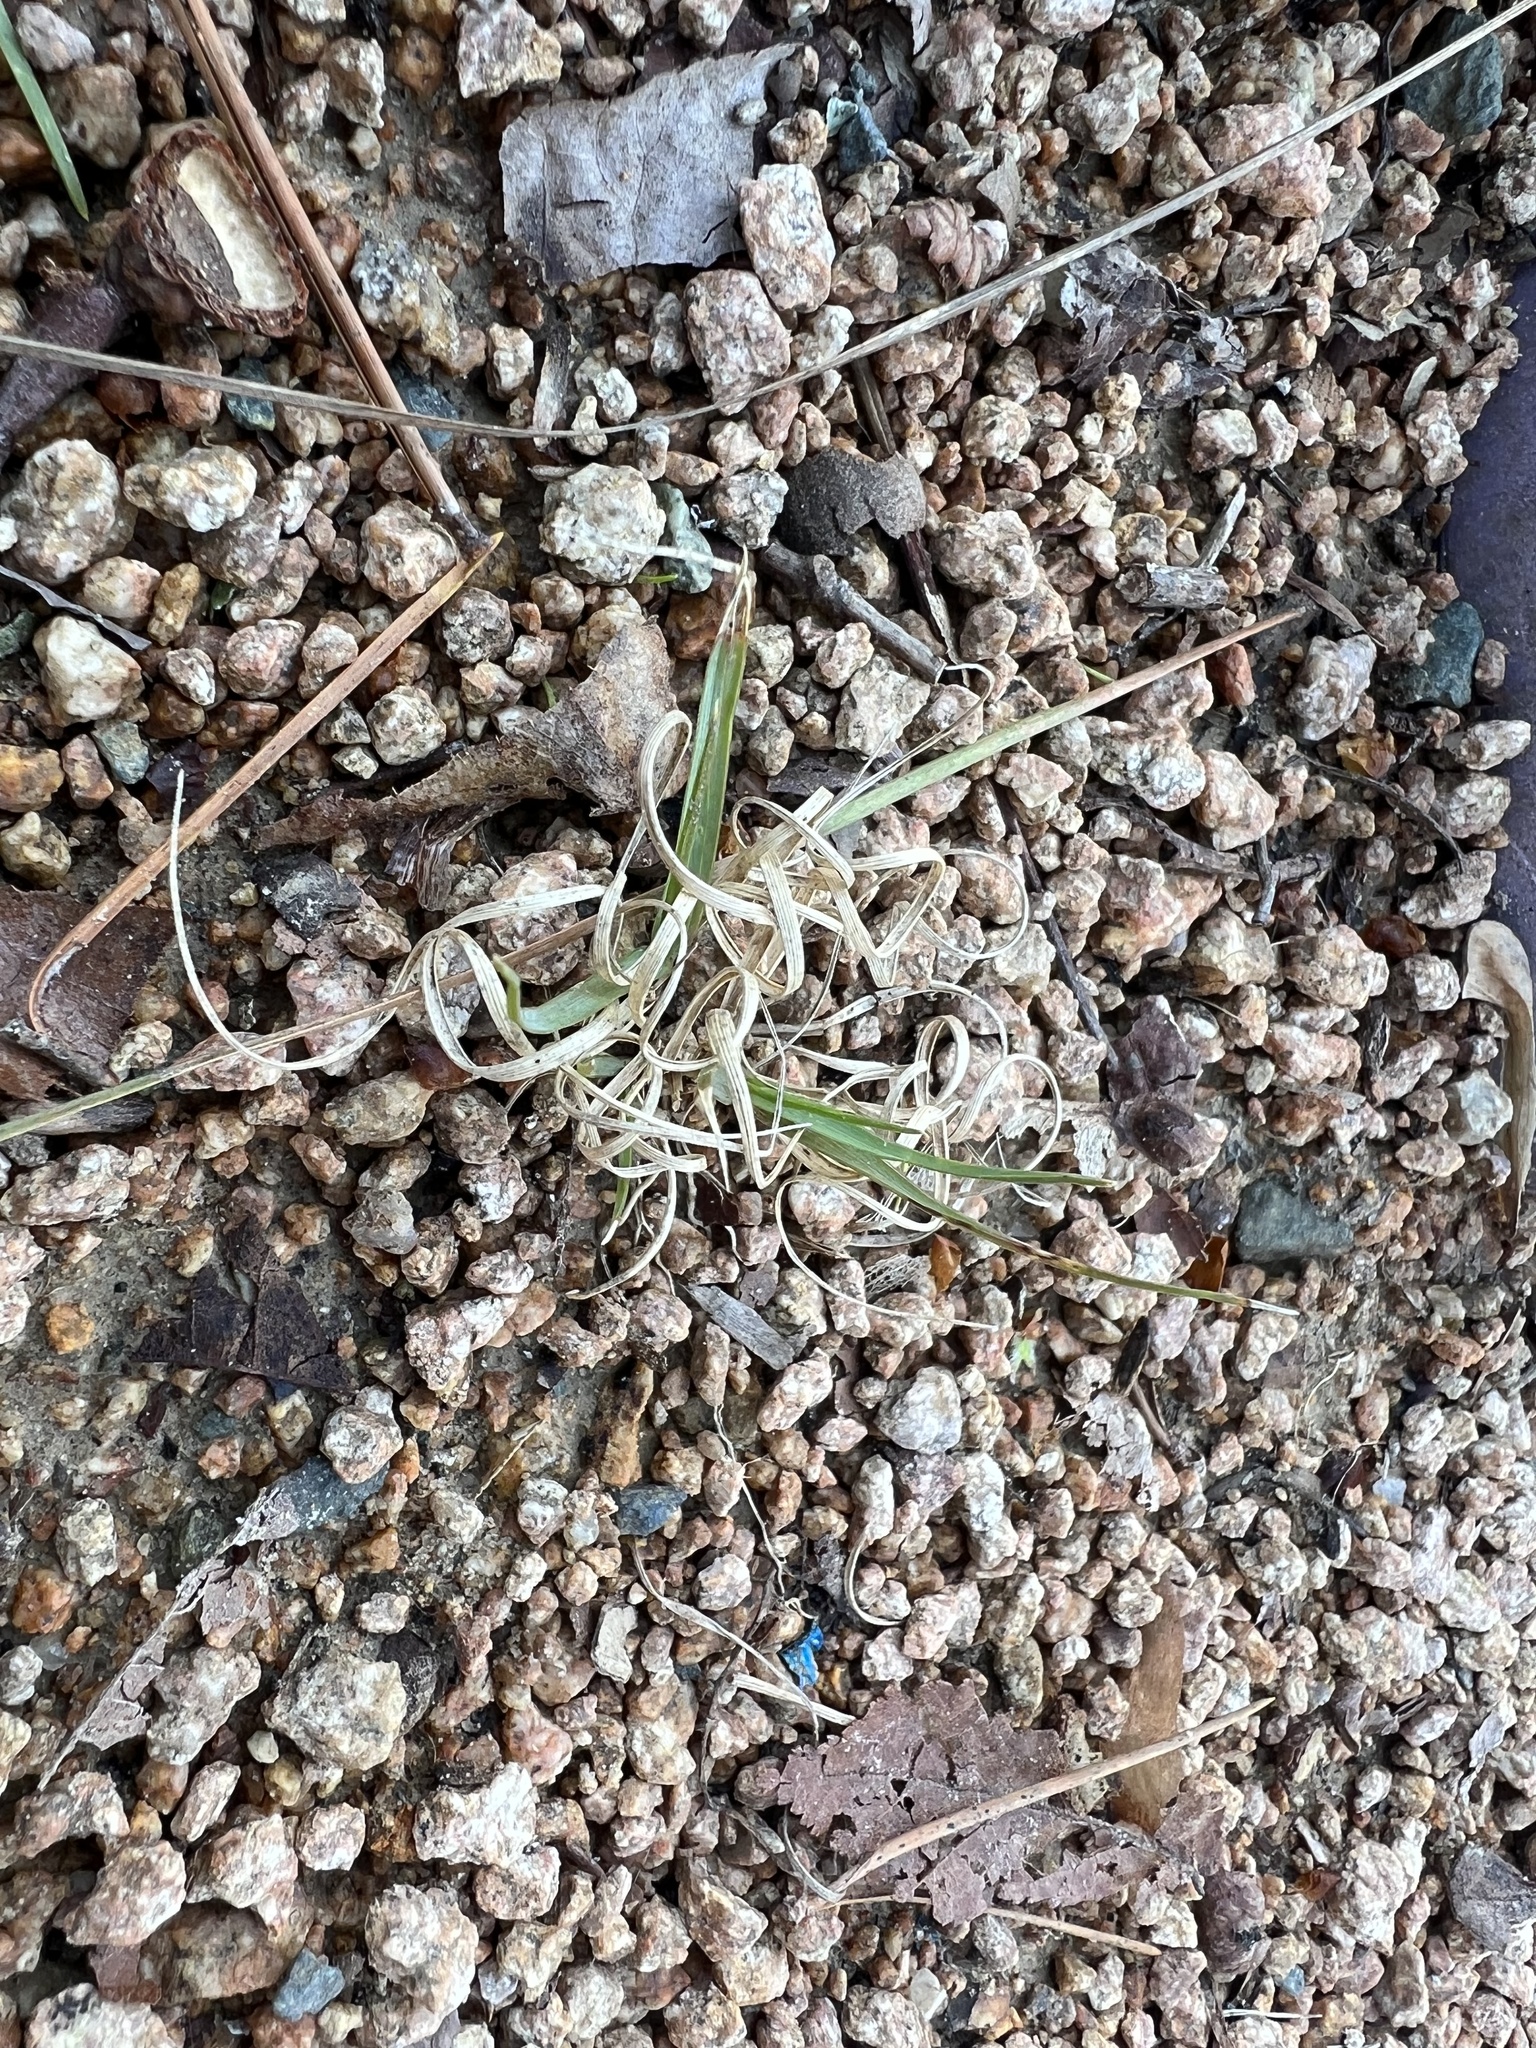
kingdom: Plantae
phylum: Tracheophyta
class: Liliopsida
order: Poales
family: Poaceae
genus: Danthonia
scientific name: Danthonia spicata
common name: Common wild oatgrass
